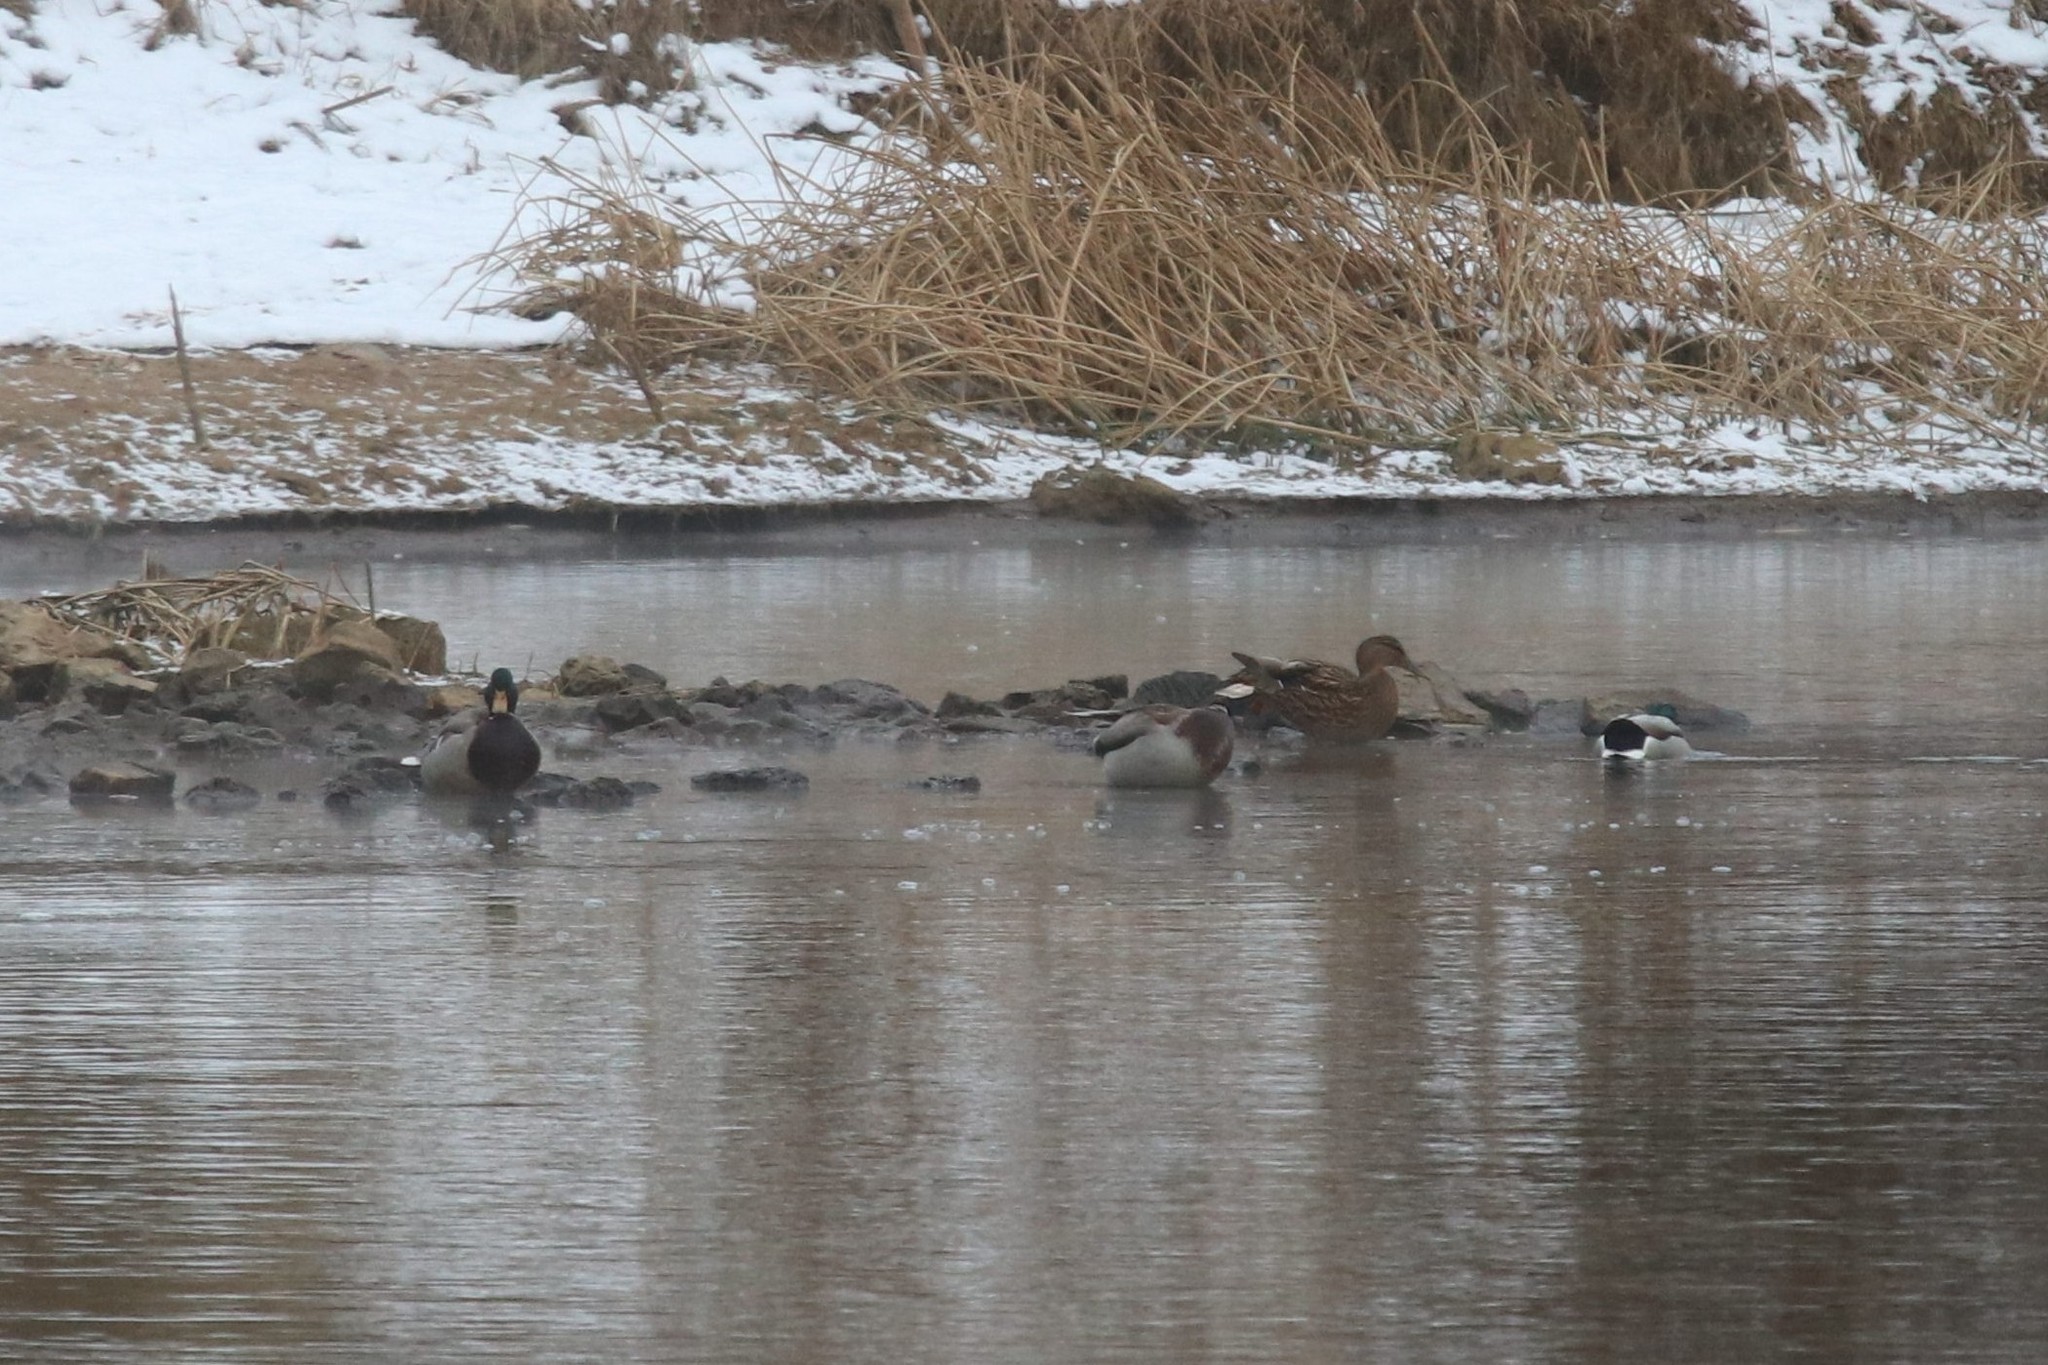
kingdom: Animalia
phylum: Chordata
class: Aves
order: Anseriformes
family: Anatidae
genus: Anas
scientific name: Anas platyrhynchos
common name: Mallard
